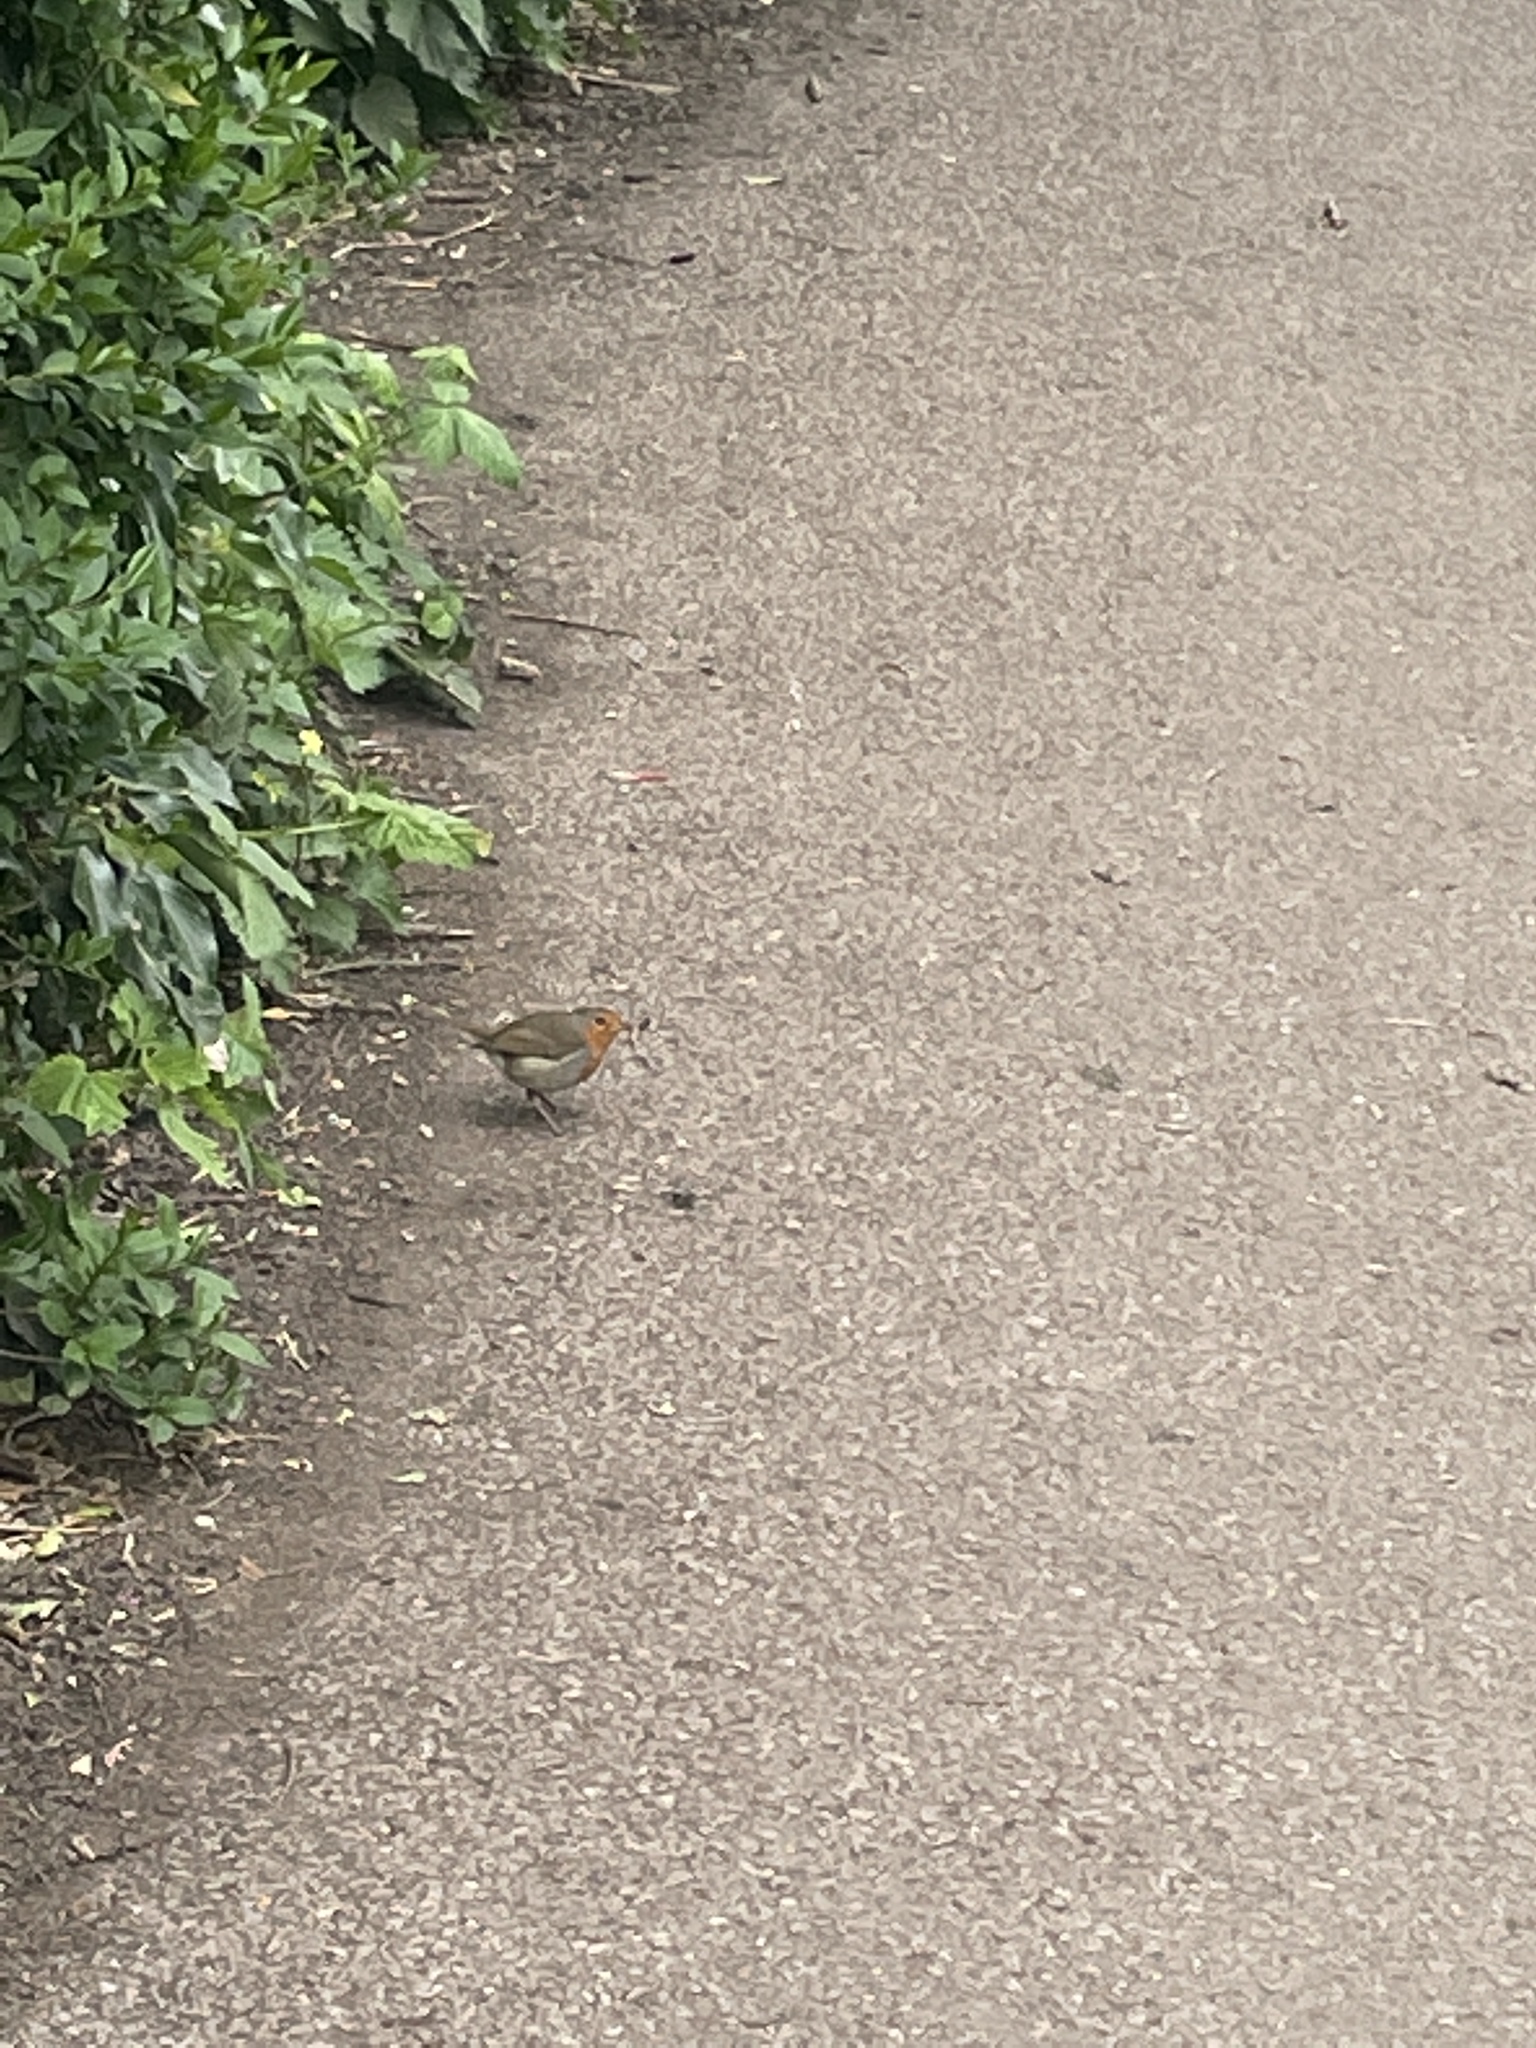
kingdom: Animalia
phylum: Chordata
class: Aves
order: Passeriformes
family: Muscicapidae
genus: Erithacus
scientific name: Erithacus rubecula
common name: European robin
